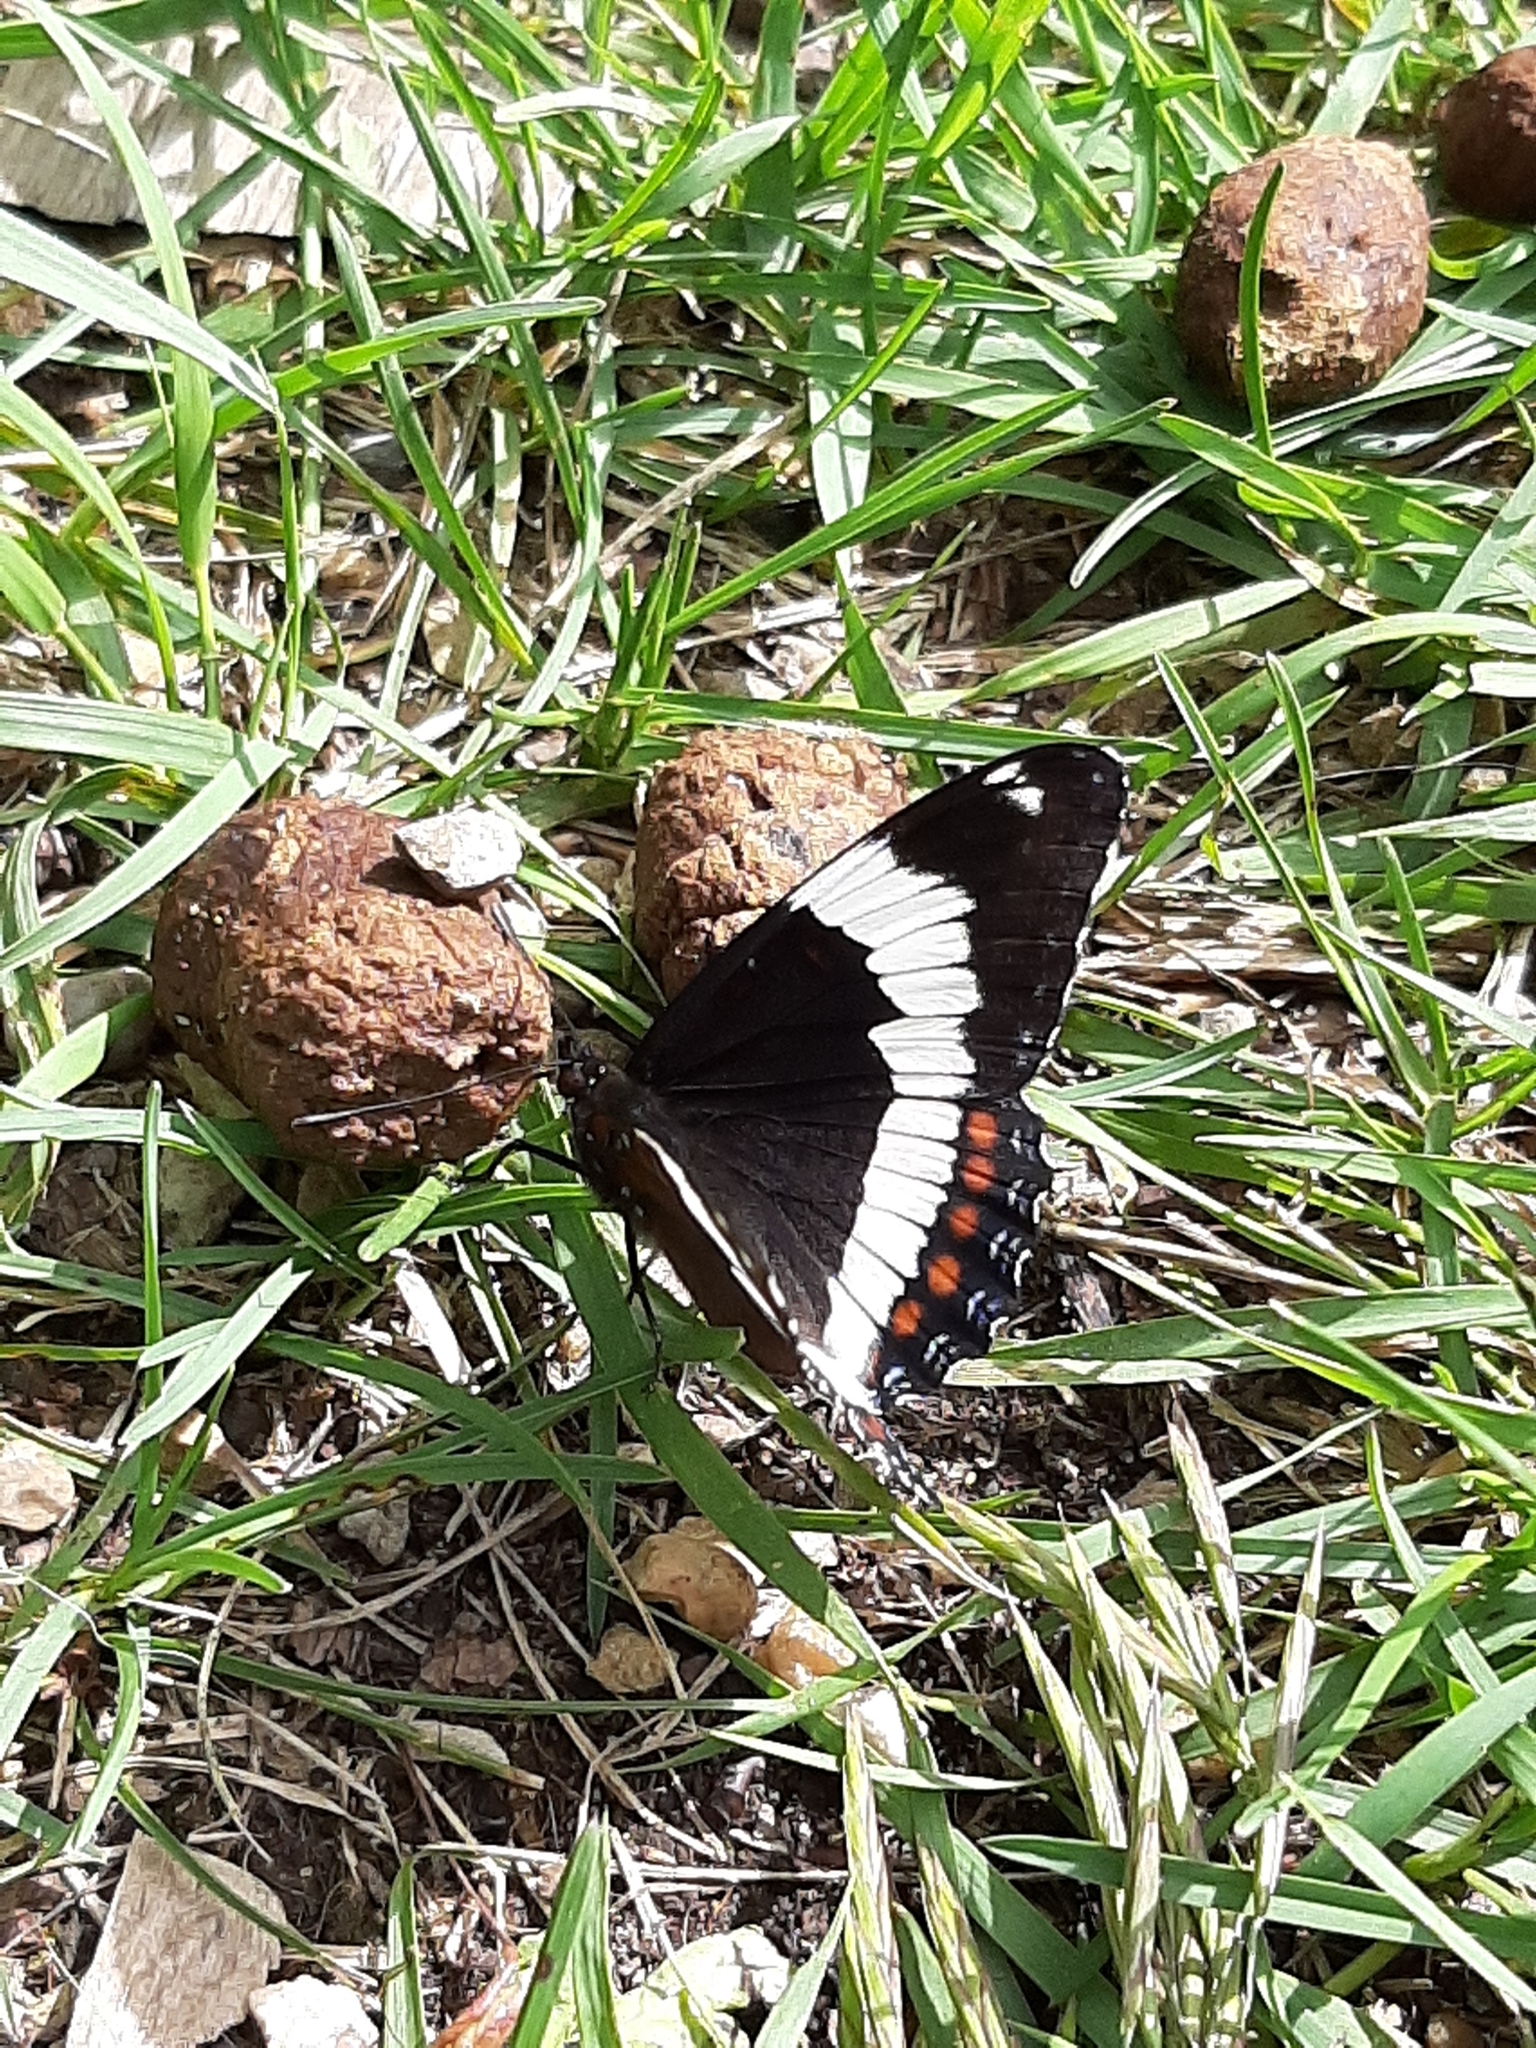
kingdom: Animalia
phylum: Arthropoda
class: Insecta
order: Lepidoptera
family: Nymphalidae
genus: Limenitis
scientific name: Limenitis arthemis
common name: Red-spotted admiral
